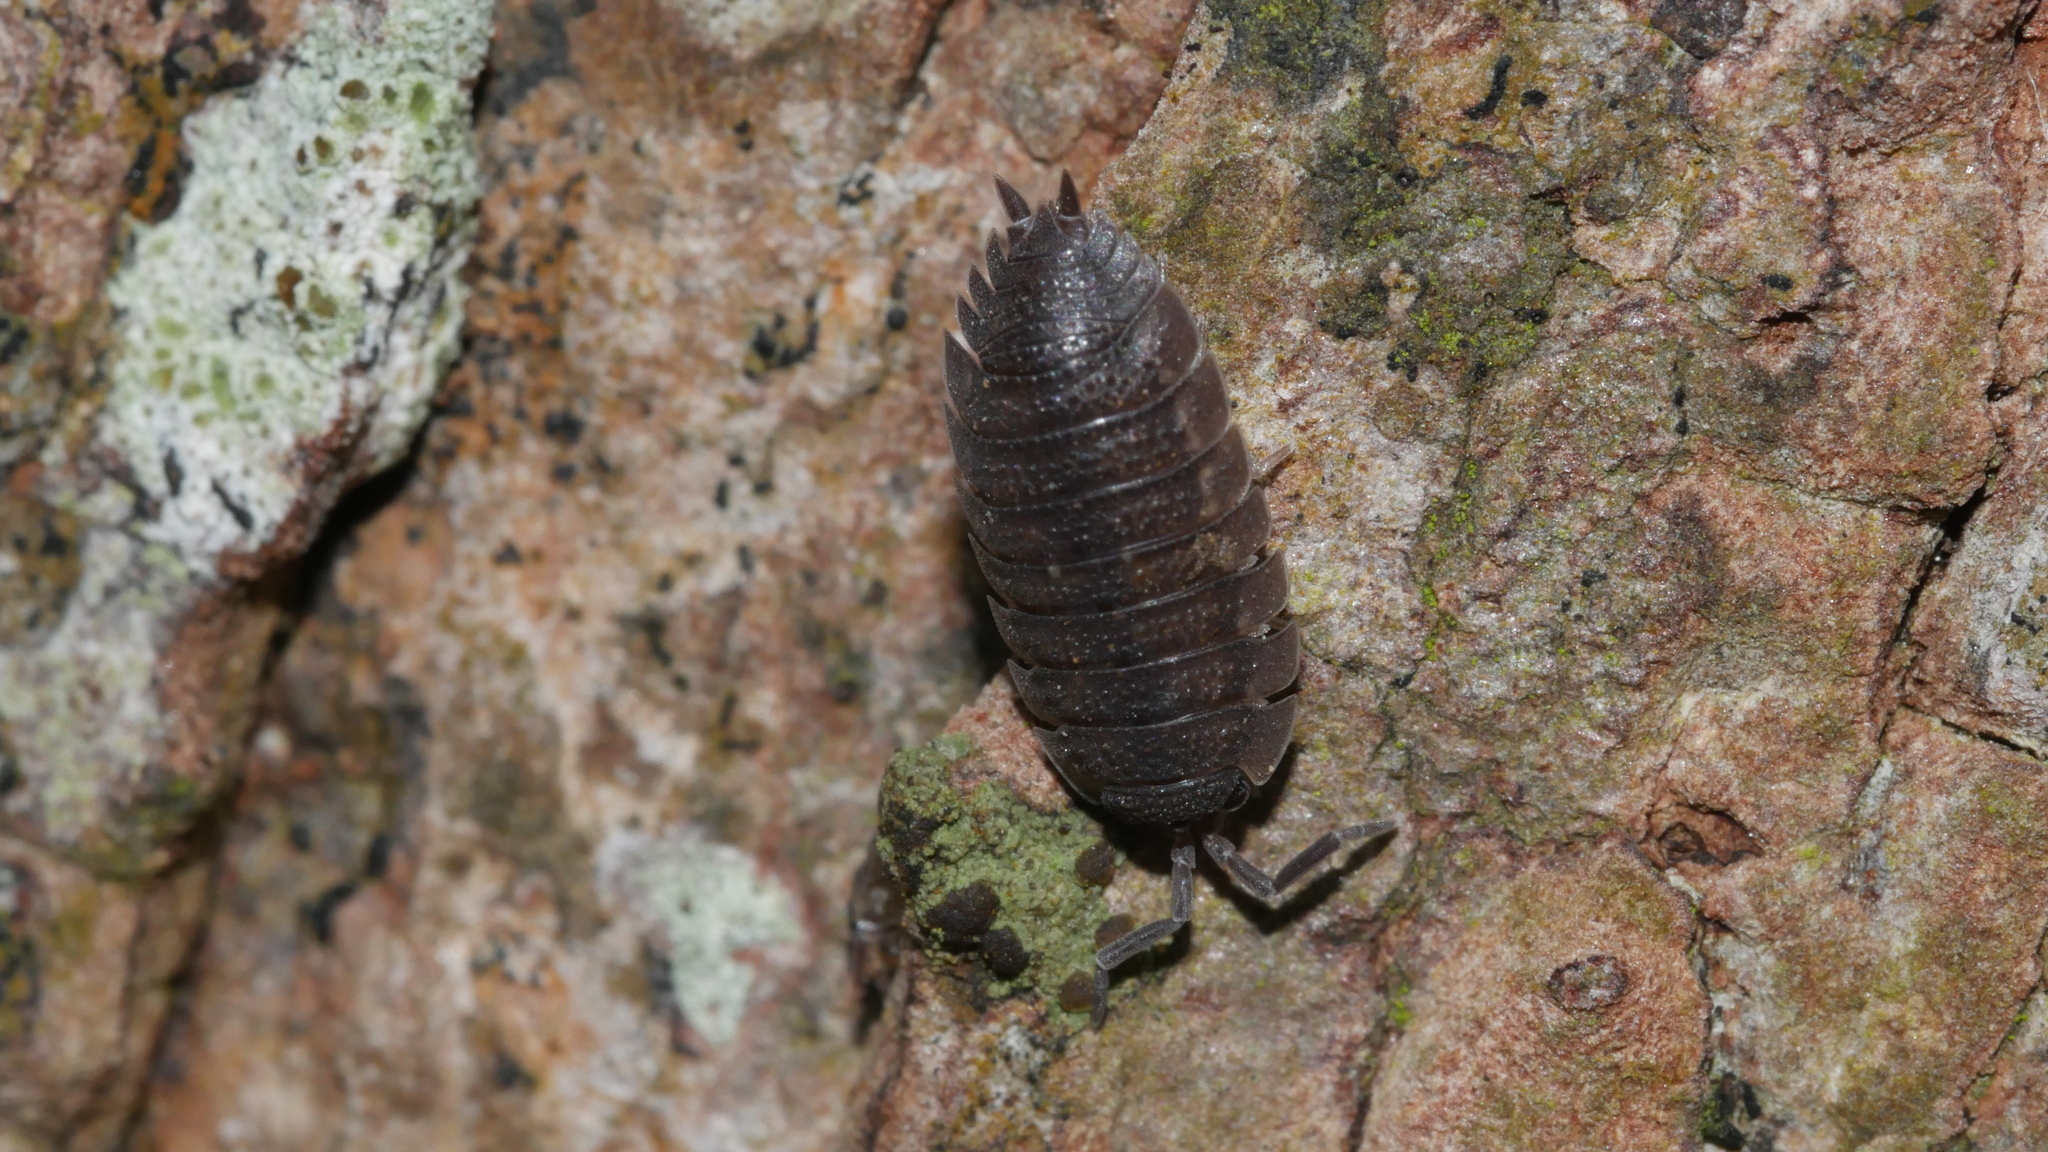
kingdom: Animalia
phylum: Arthropoda
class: Malacostraca
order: Isopoda
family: Porcellionidae
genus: Porcellio
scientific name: Porcellio scaber
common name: Common rough woodlouse
